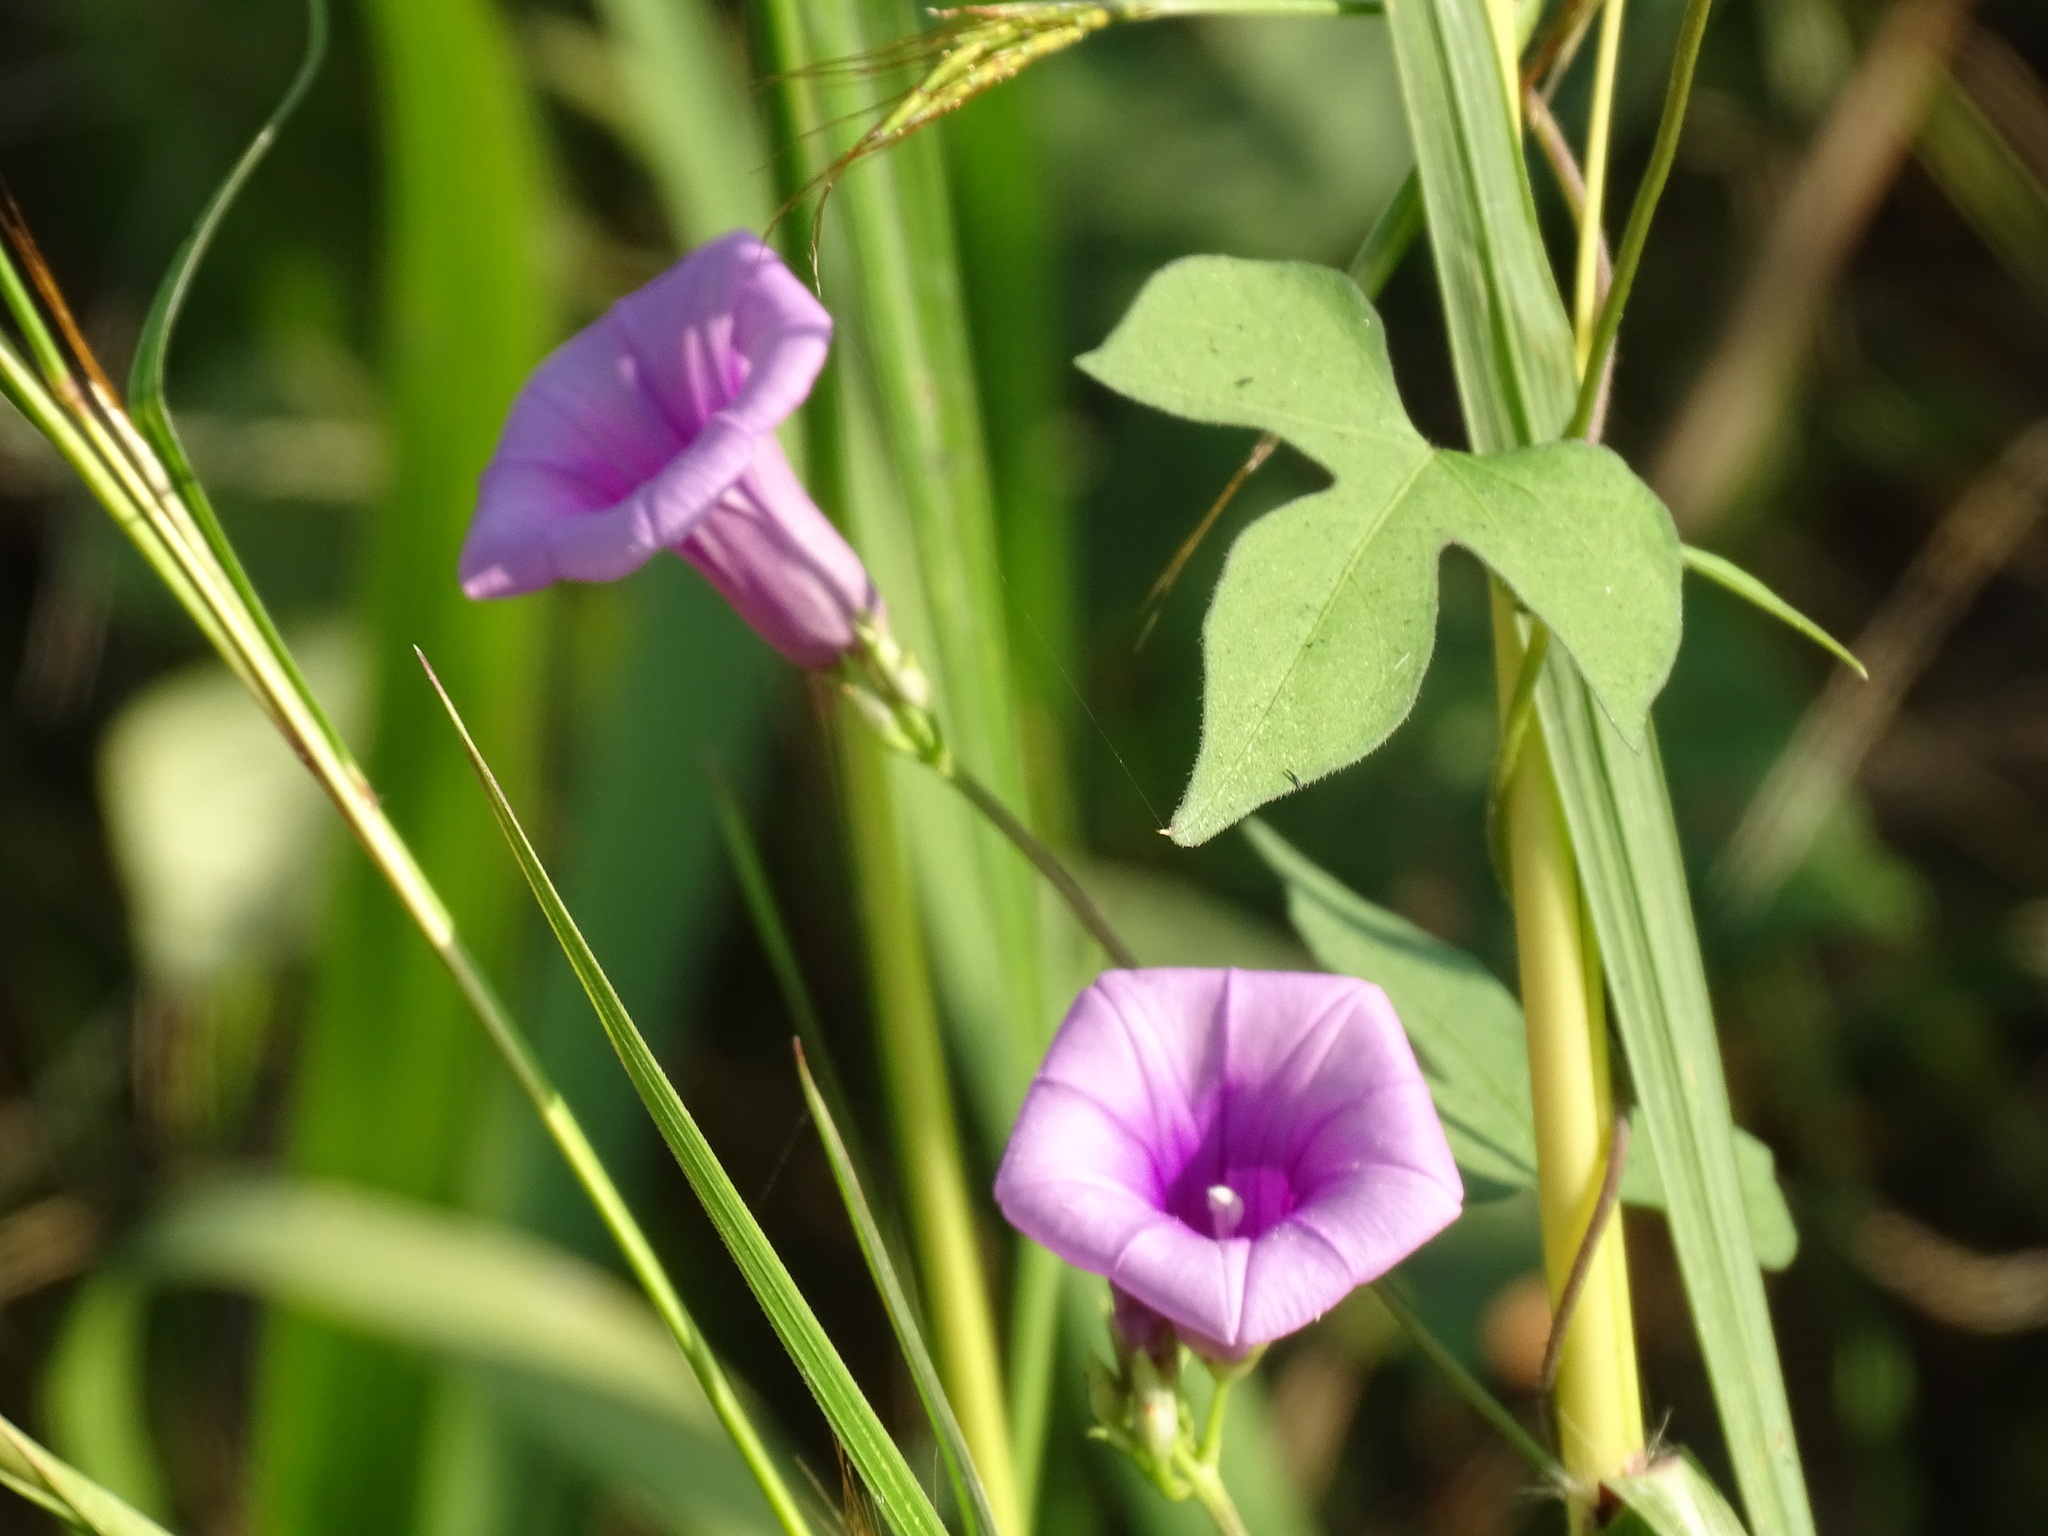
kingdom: Plantae
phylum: Tracheophyta
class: Magnoliopsida
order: Solanales
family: Convolvulaceae
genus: Ipomoea
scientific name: Ipomoea trifida
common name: Cotton morningglory
